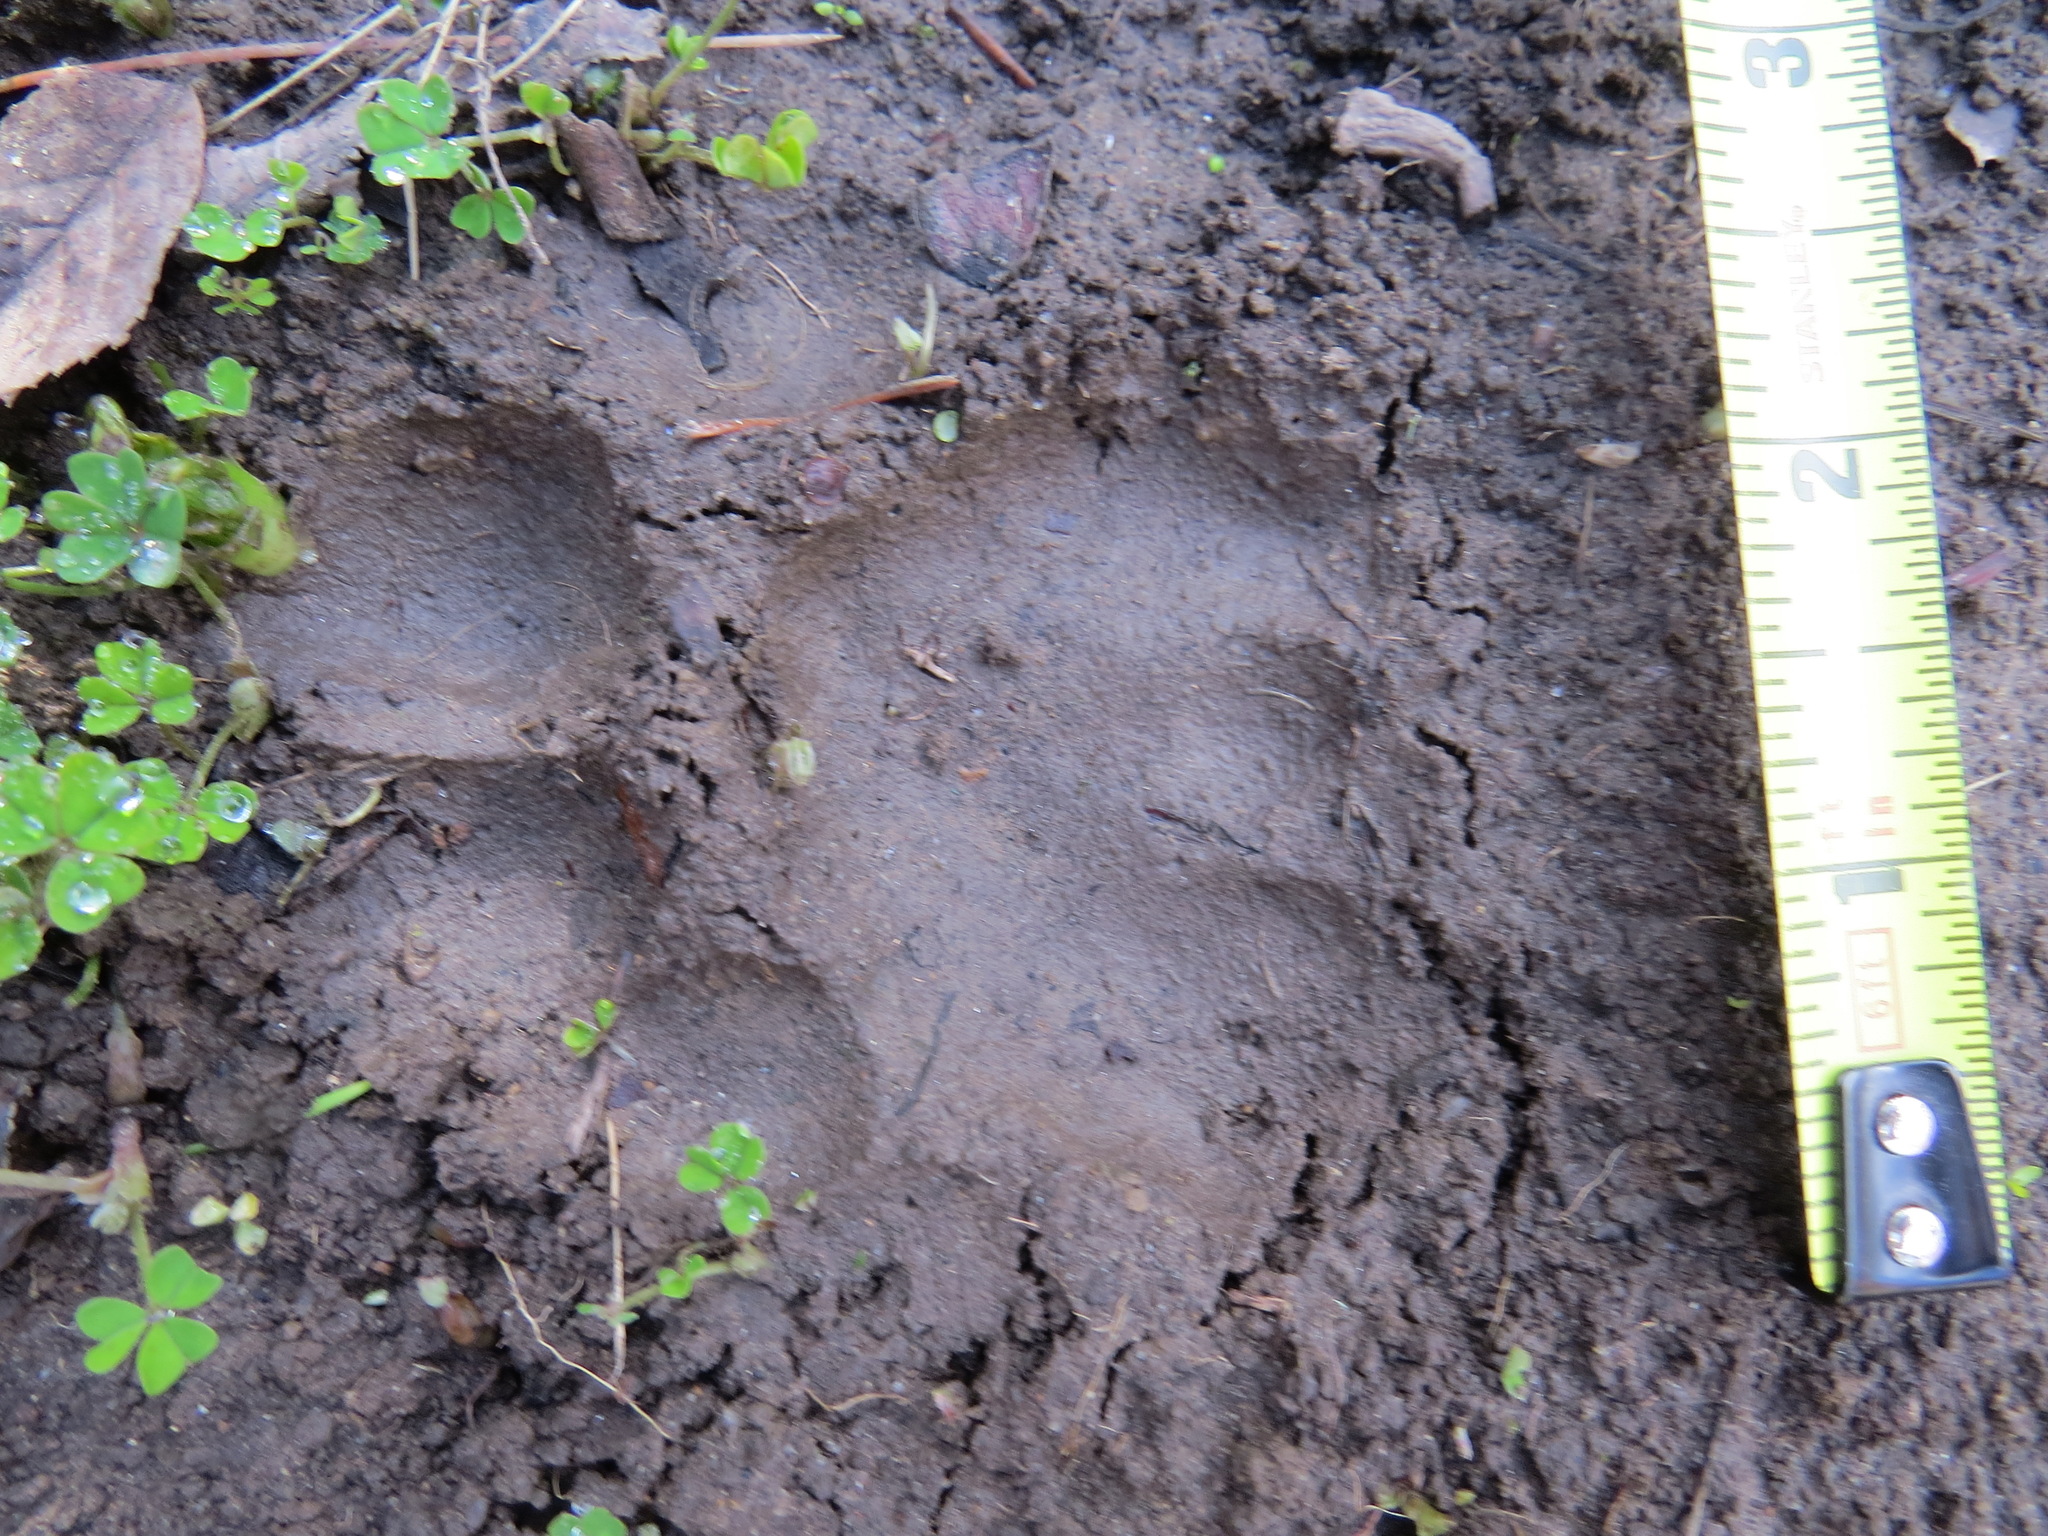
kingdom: Animalia
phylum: Chordata
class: Mammalia
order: Carnivora
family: Felidae
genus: Puma
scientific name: Puma concolor
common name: Puma
